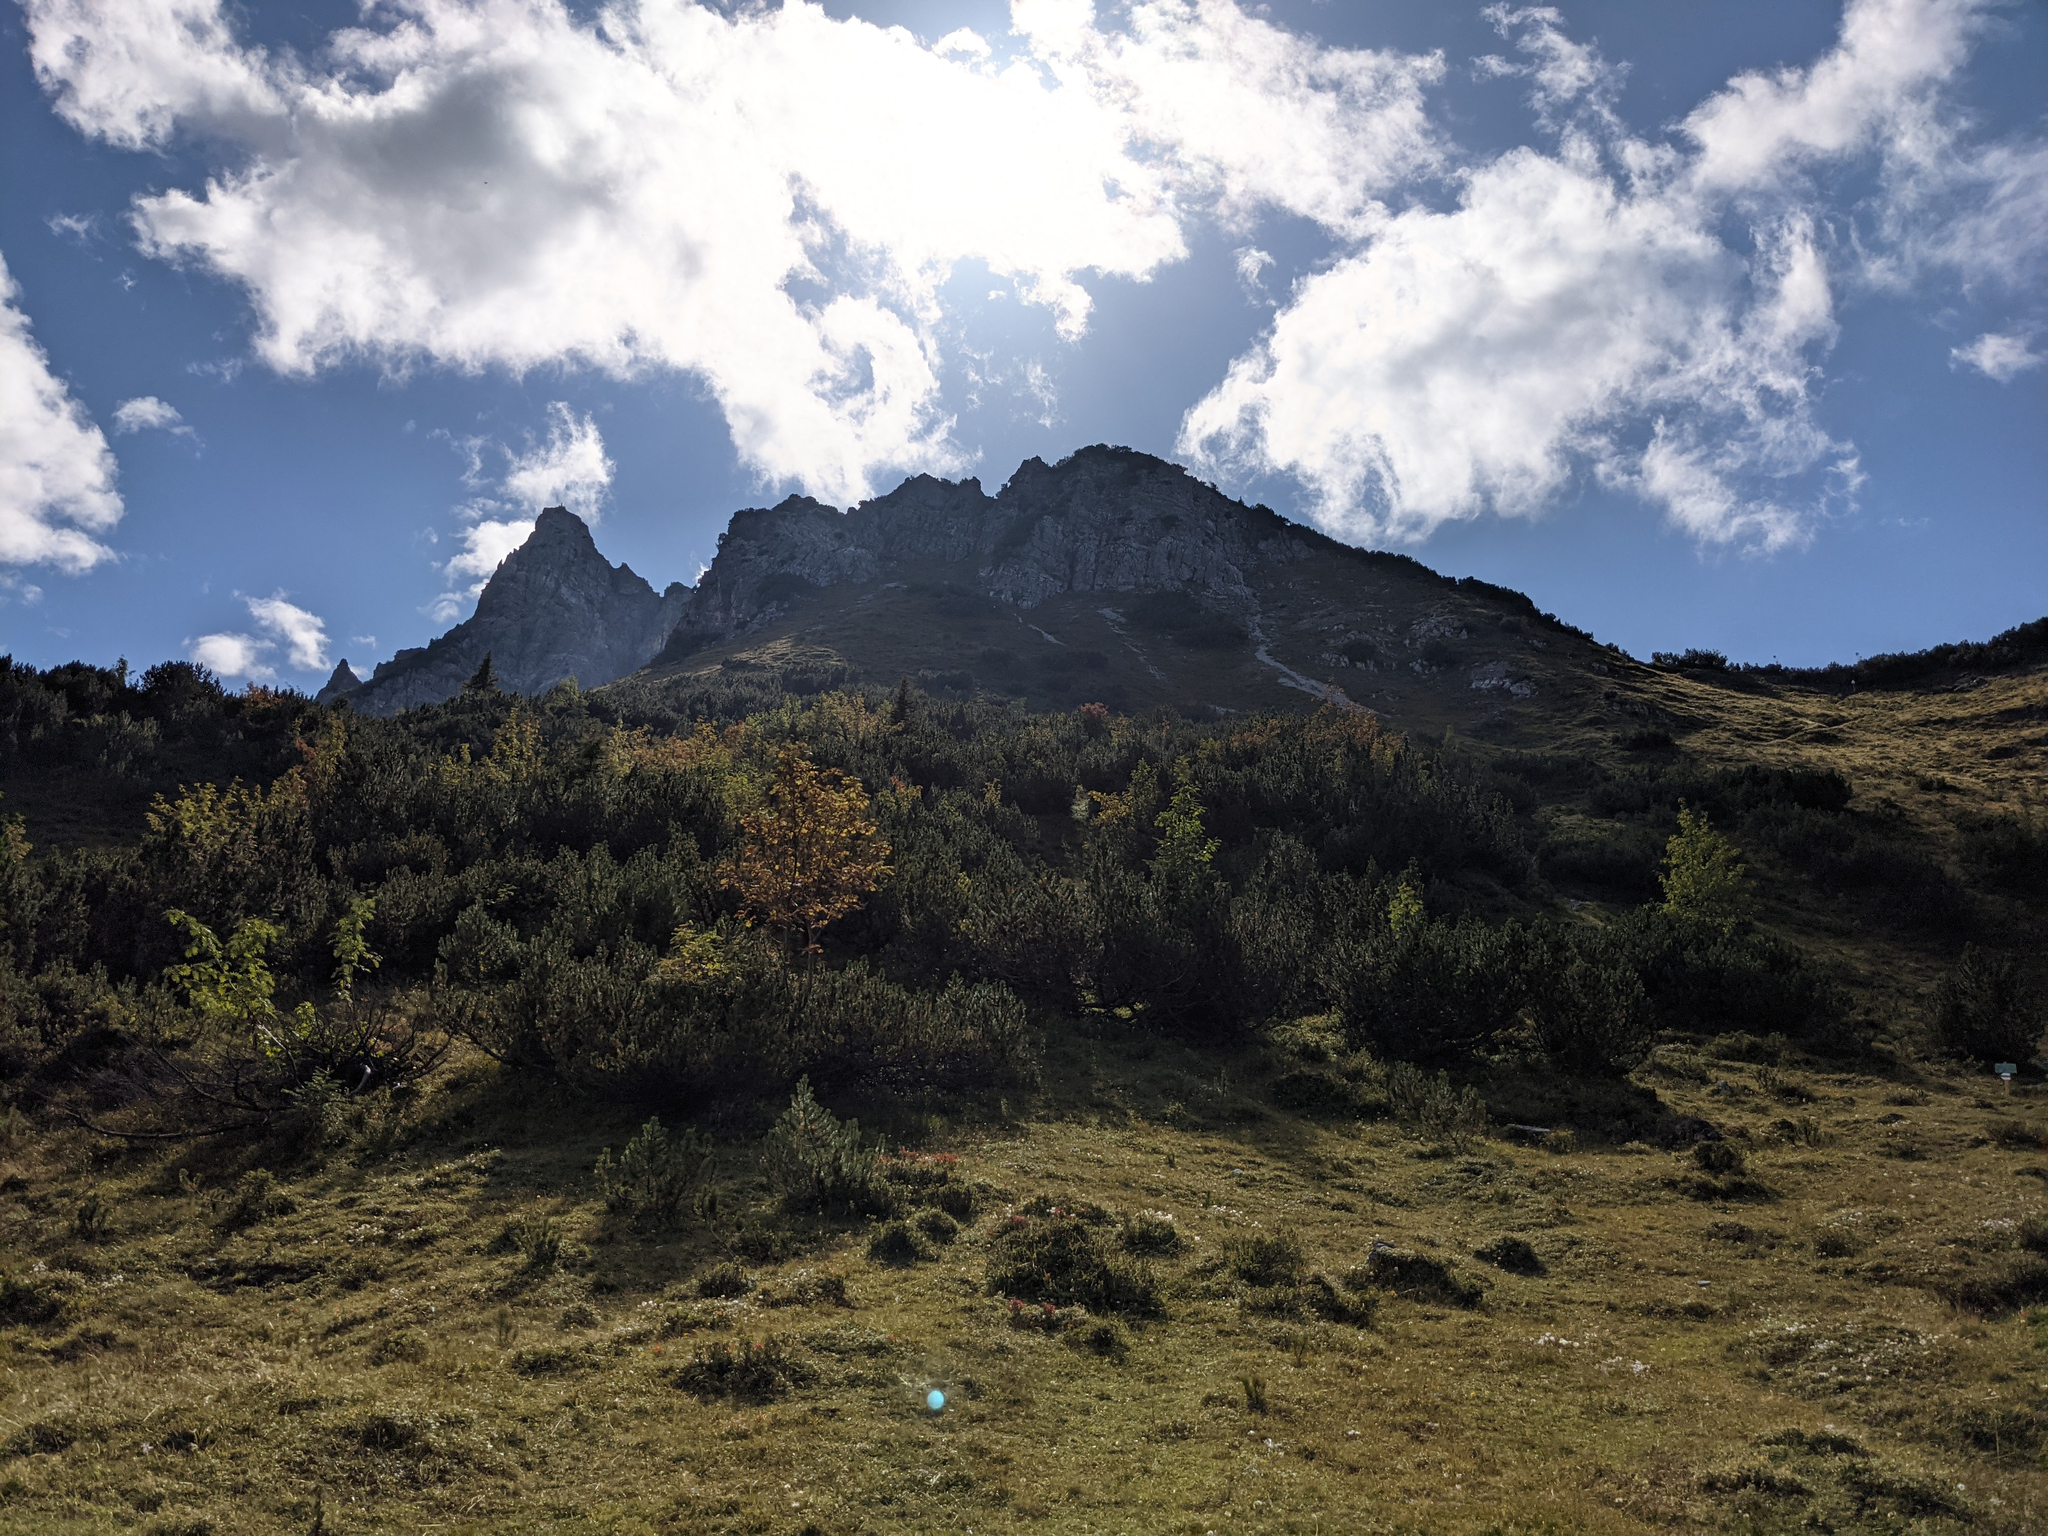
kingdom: Plantae
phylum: Tracheophyta
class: Pinopsida
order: Pinales
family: Pinaceae
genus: Pinus
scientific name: Pinus mugo
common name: Mugo pine
